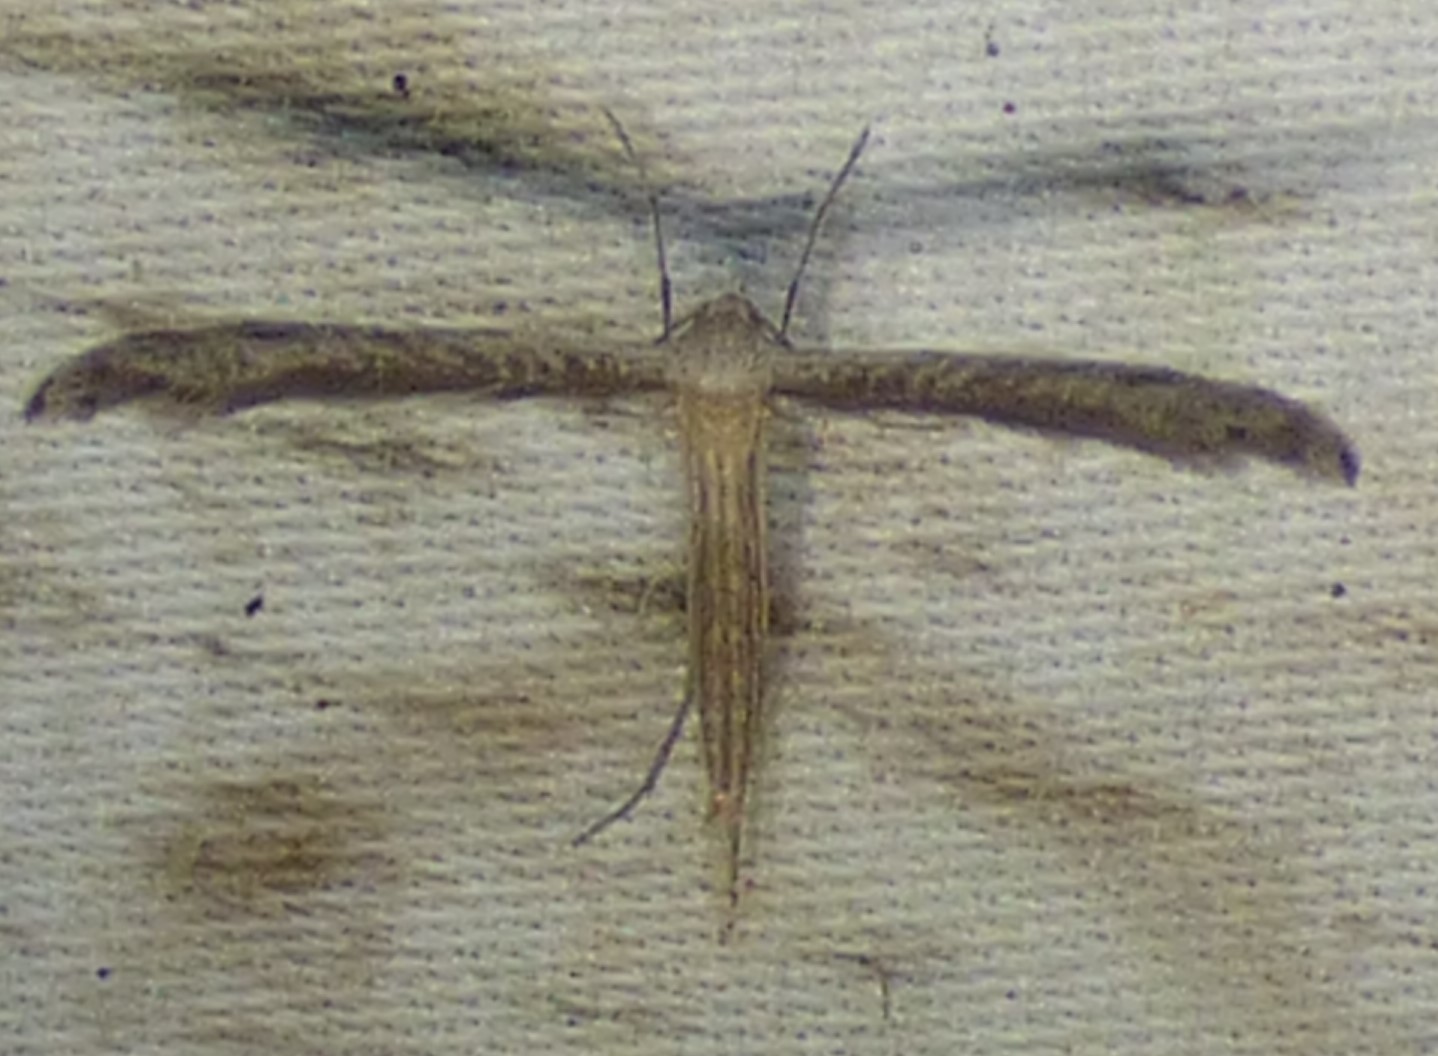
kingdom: Animalia
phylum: Arthropoda
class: Insecta
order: Lepidoptera
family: Pterophoridae
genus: Lioptilodes
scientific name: Lioptilodes albistriolatus
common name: Moth
